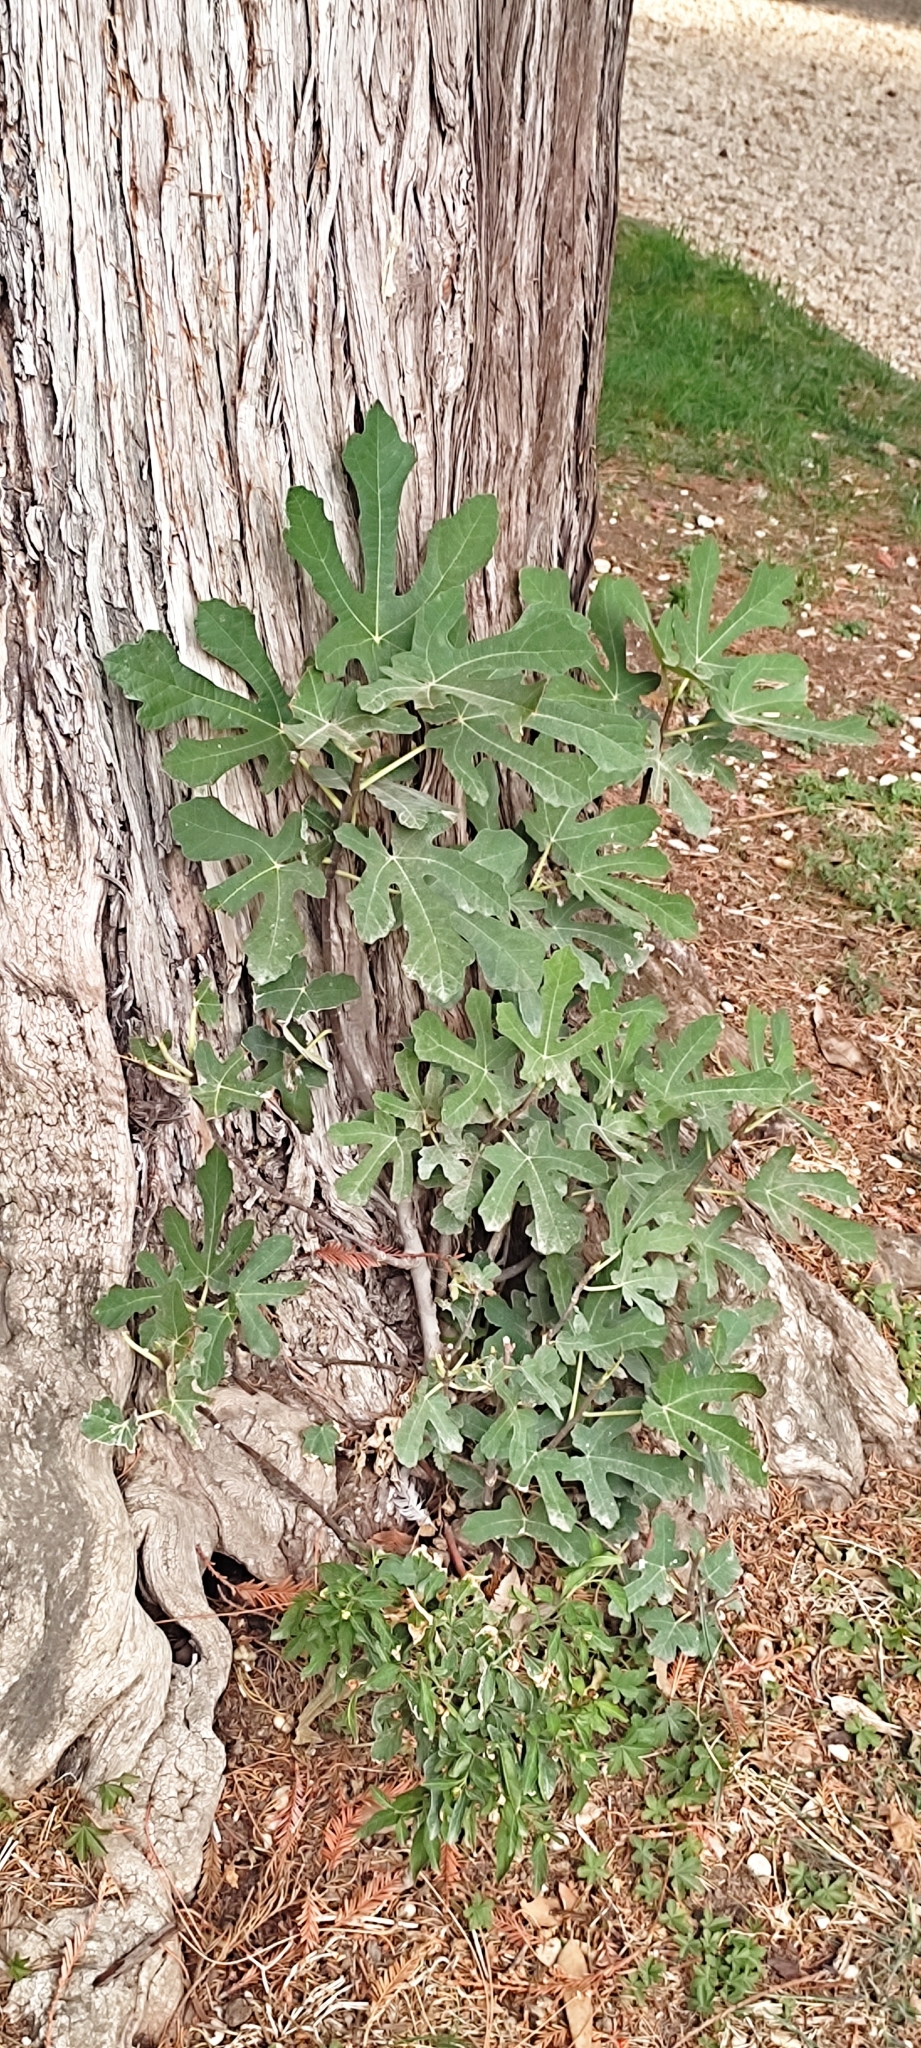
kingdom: Plantae
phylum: Tracheophyta
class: Magnoliopsida
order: Rosales
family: Moraceae
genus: Ficus
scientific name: Ficus carica
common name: Fig
